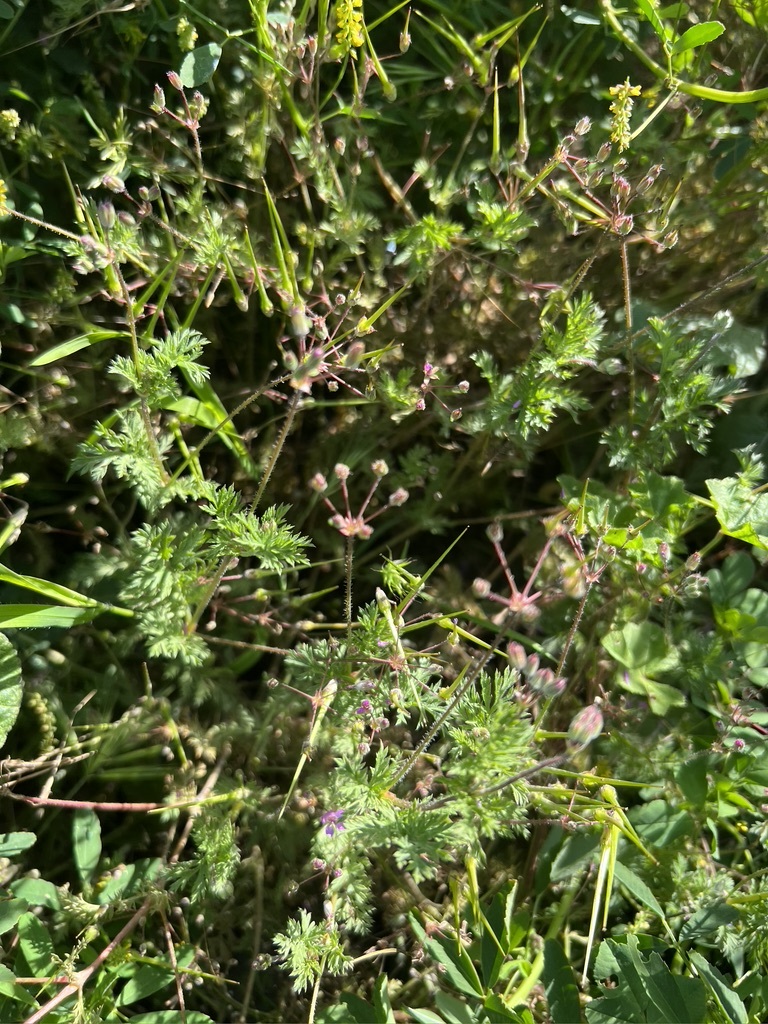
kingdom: Plantae
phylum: Tracheophyta
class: Magnoliopsida
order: Geraniales
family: Geraniaceae
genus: Erodium
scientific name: Erodium cicutarium
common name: Common stork's-bill
